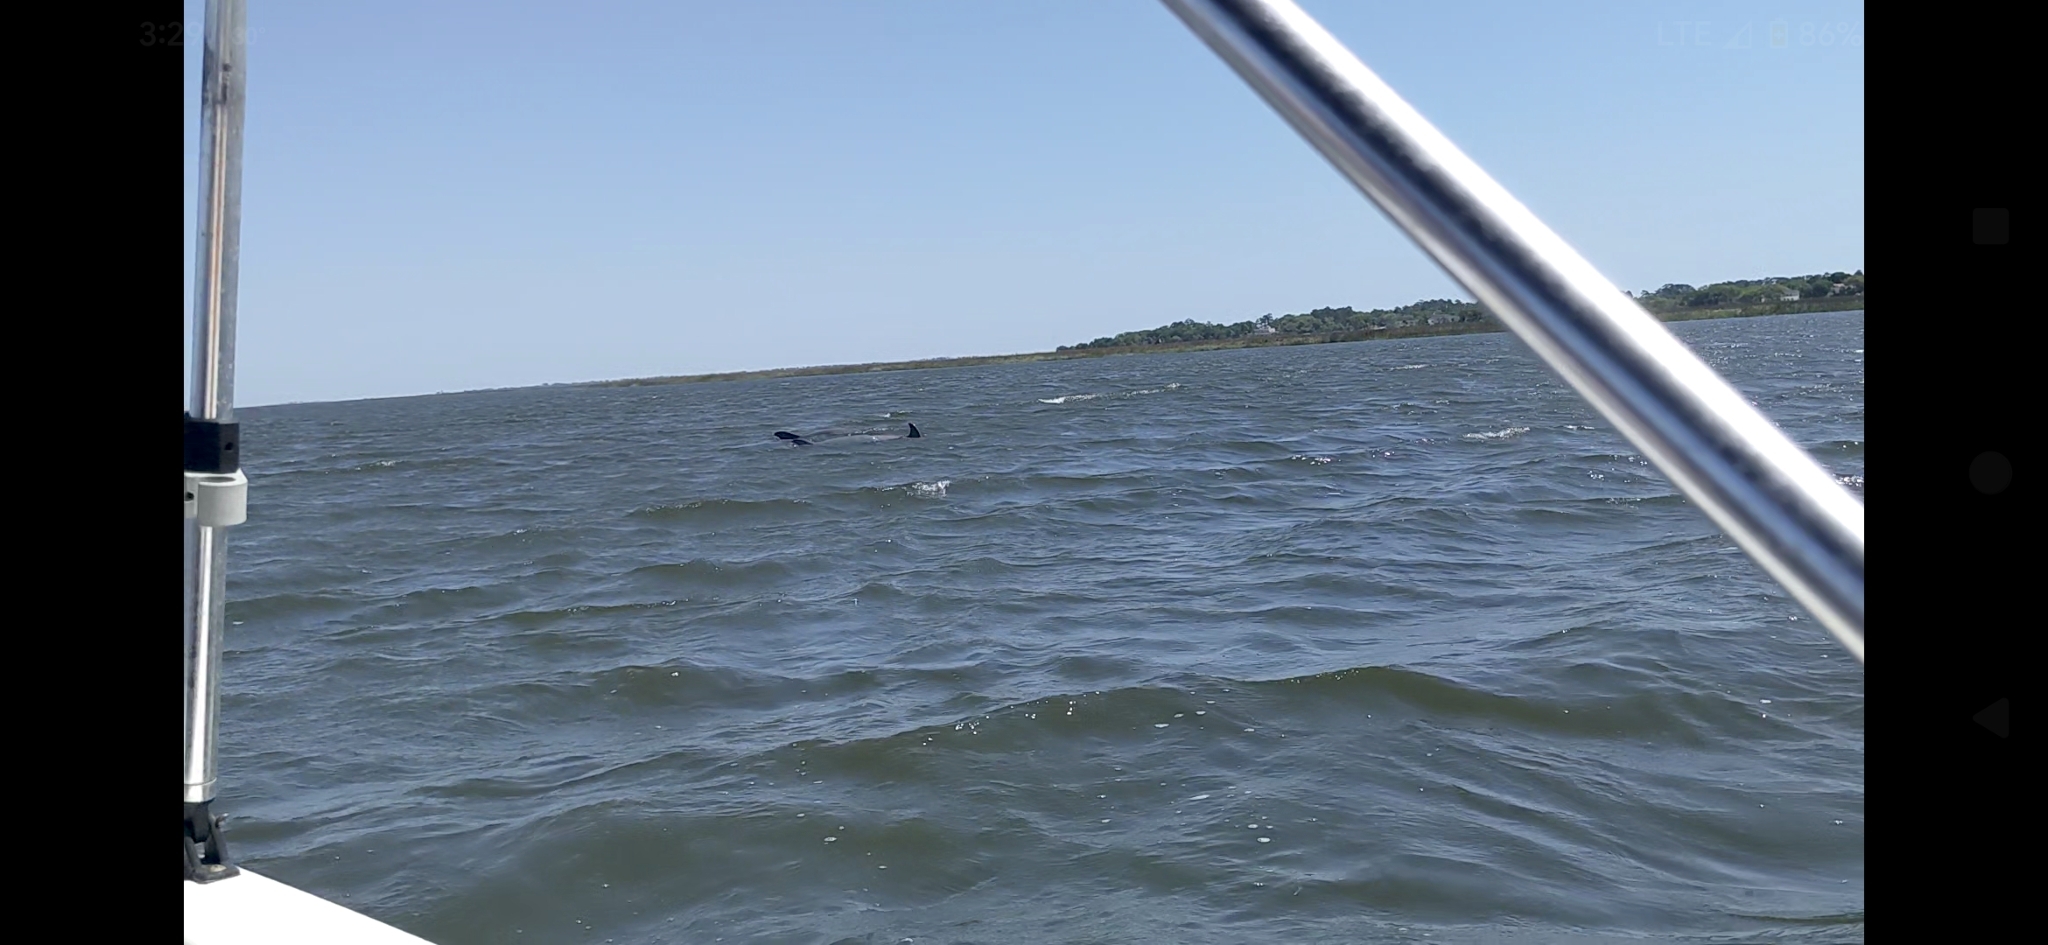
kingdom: Animalia
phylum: Chordata
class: Mammalia
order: Cetacea
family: Delphinidae
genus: Tursiops
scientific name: Tursiops truncatus
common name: Bottlenose dolphin
